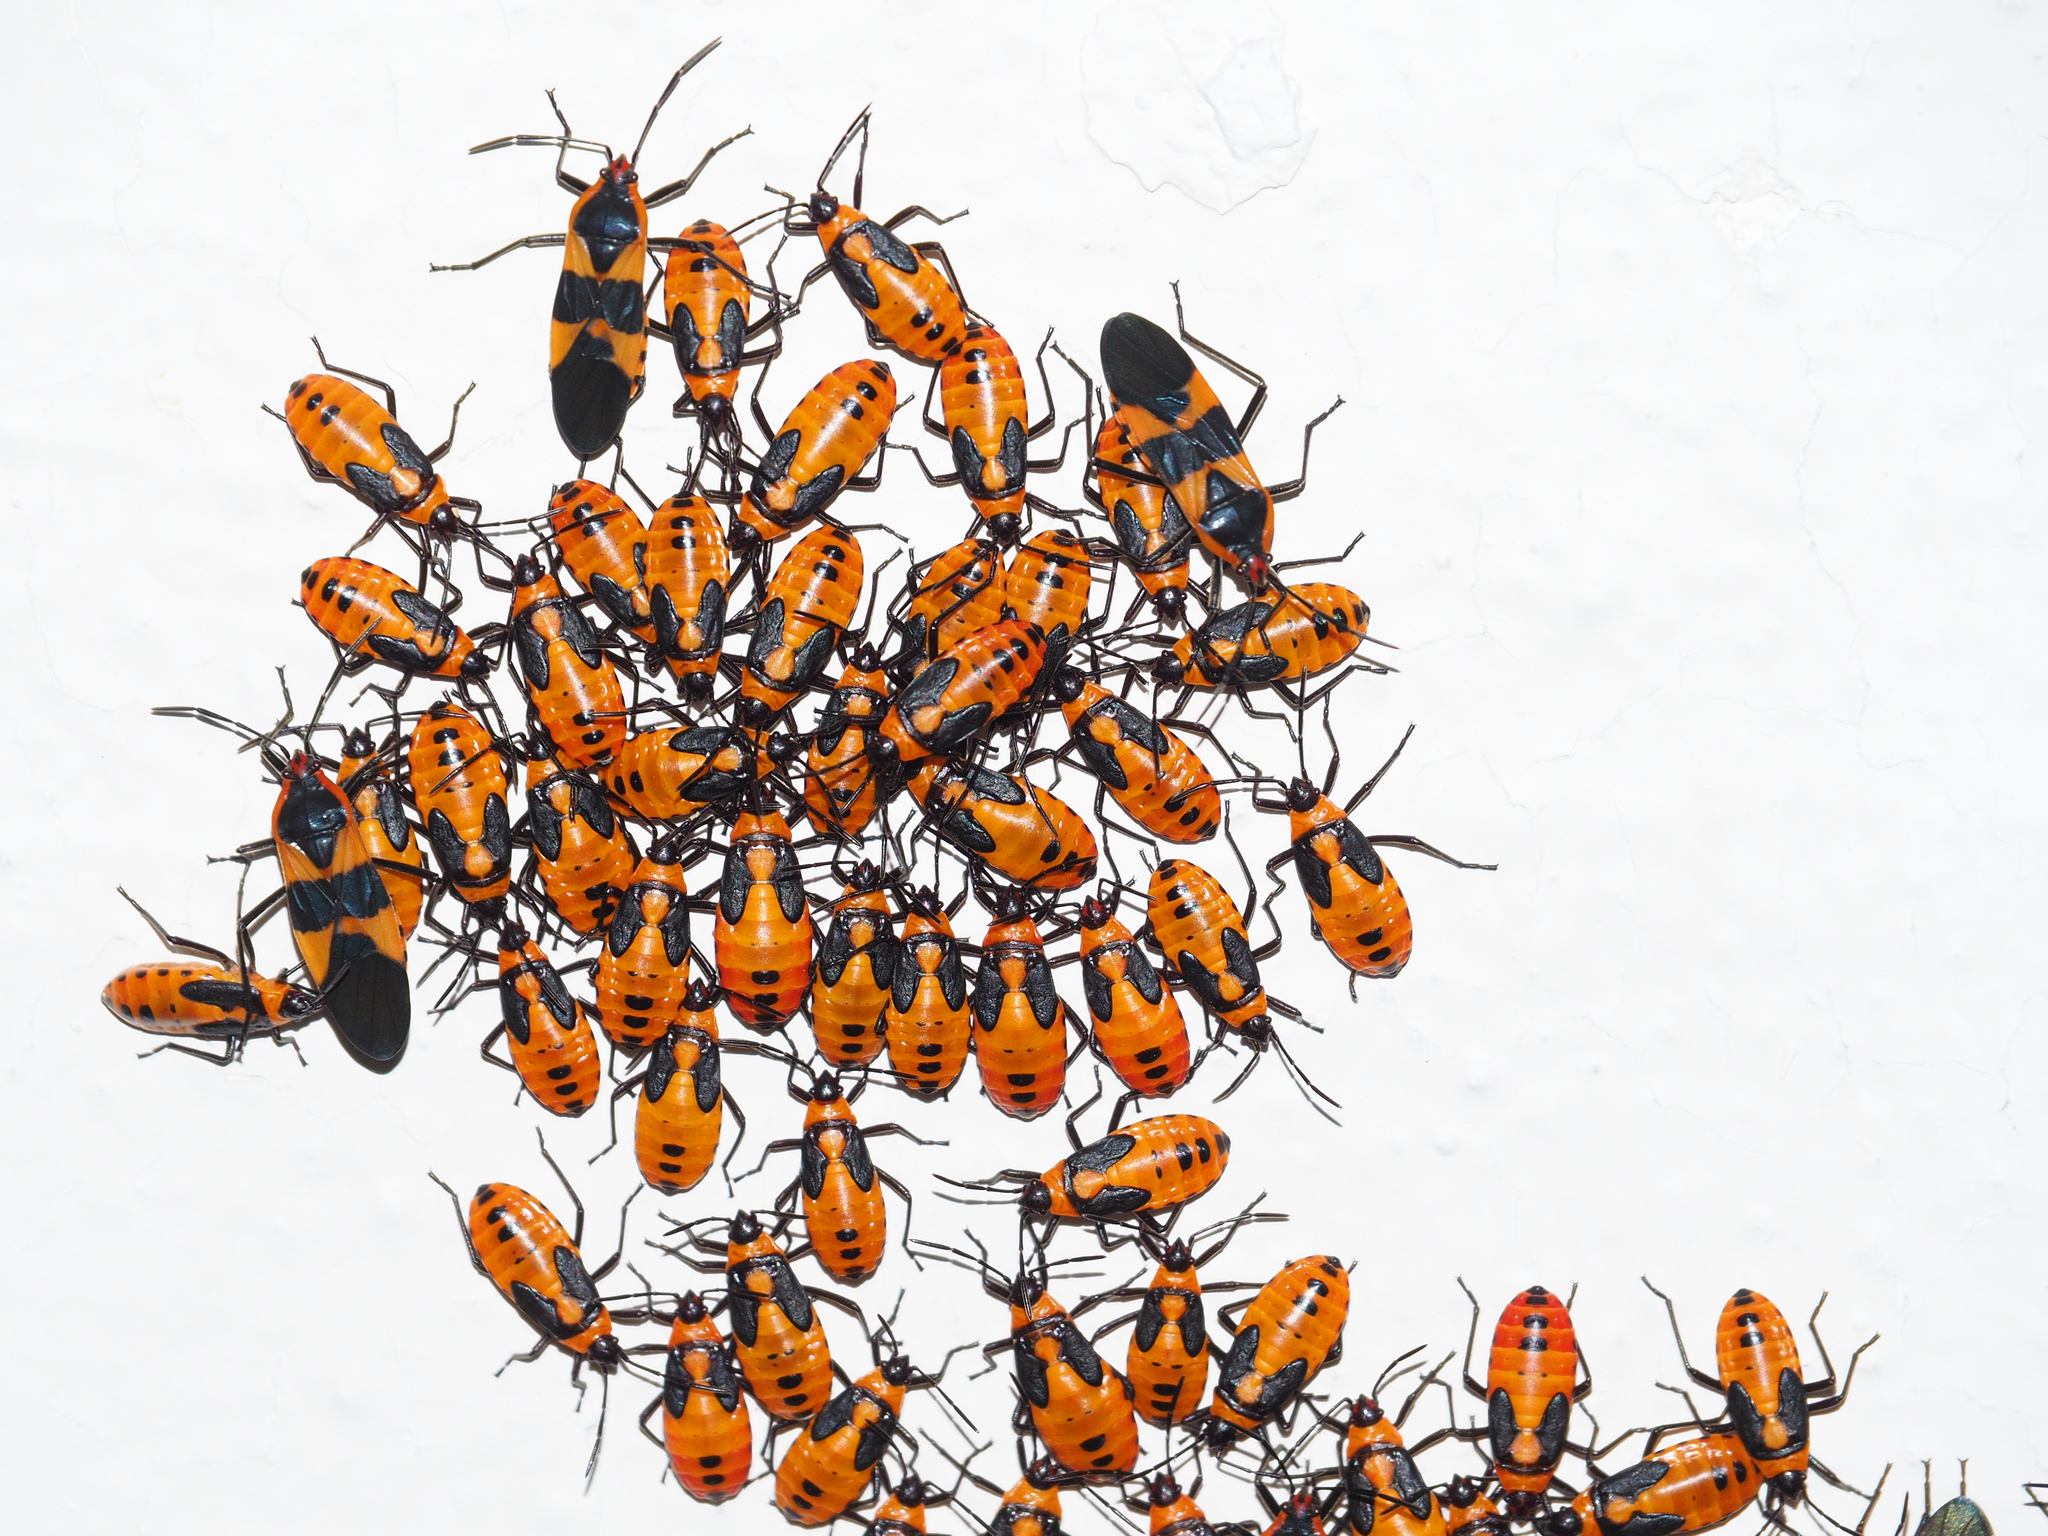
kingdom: Animalia
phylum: Arthropoda
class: Insecta
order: Hemiptera
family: Lygaeidae
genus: Oncopeltus
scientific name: Oncopeltus fasciatus
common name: Large milkweed bug
